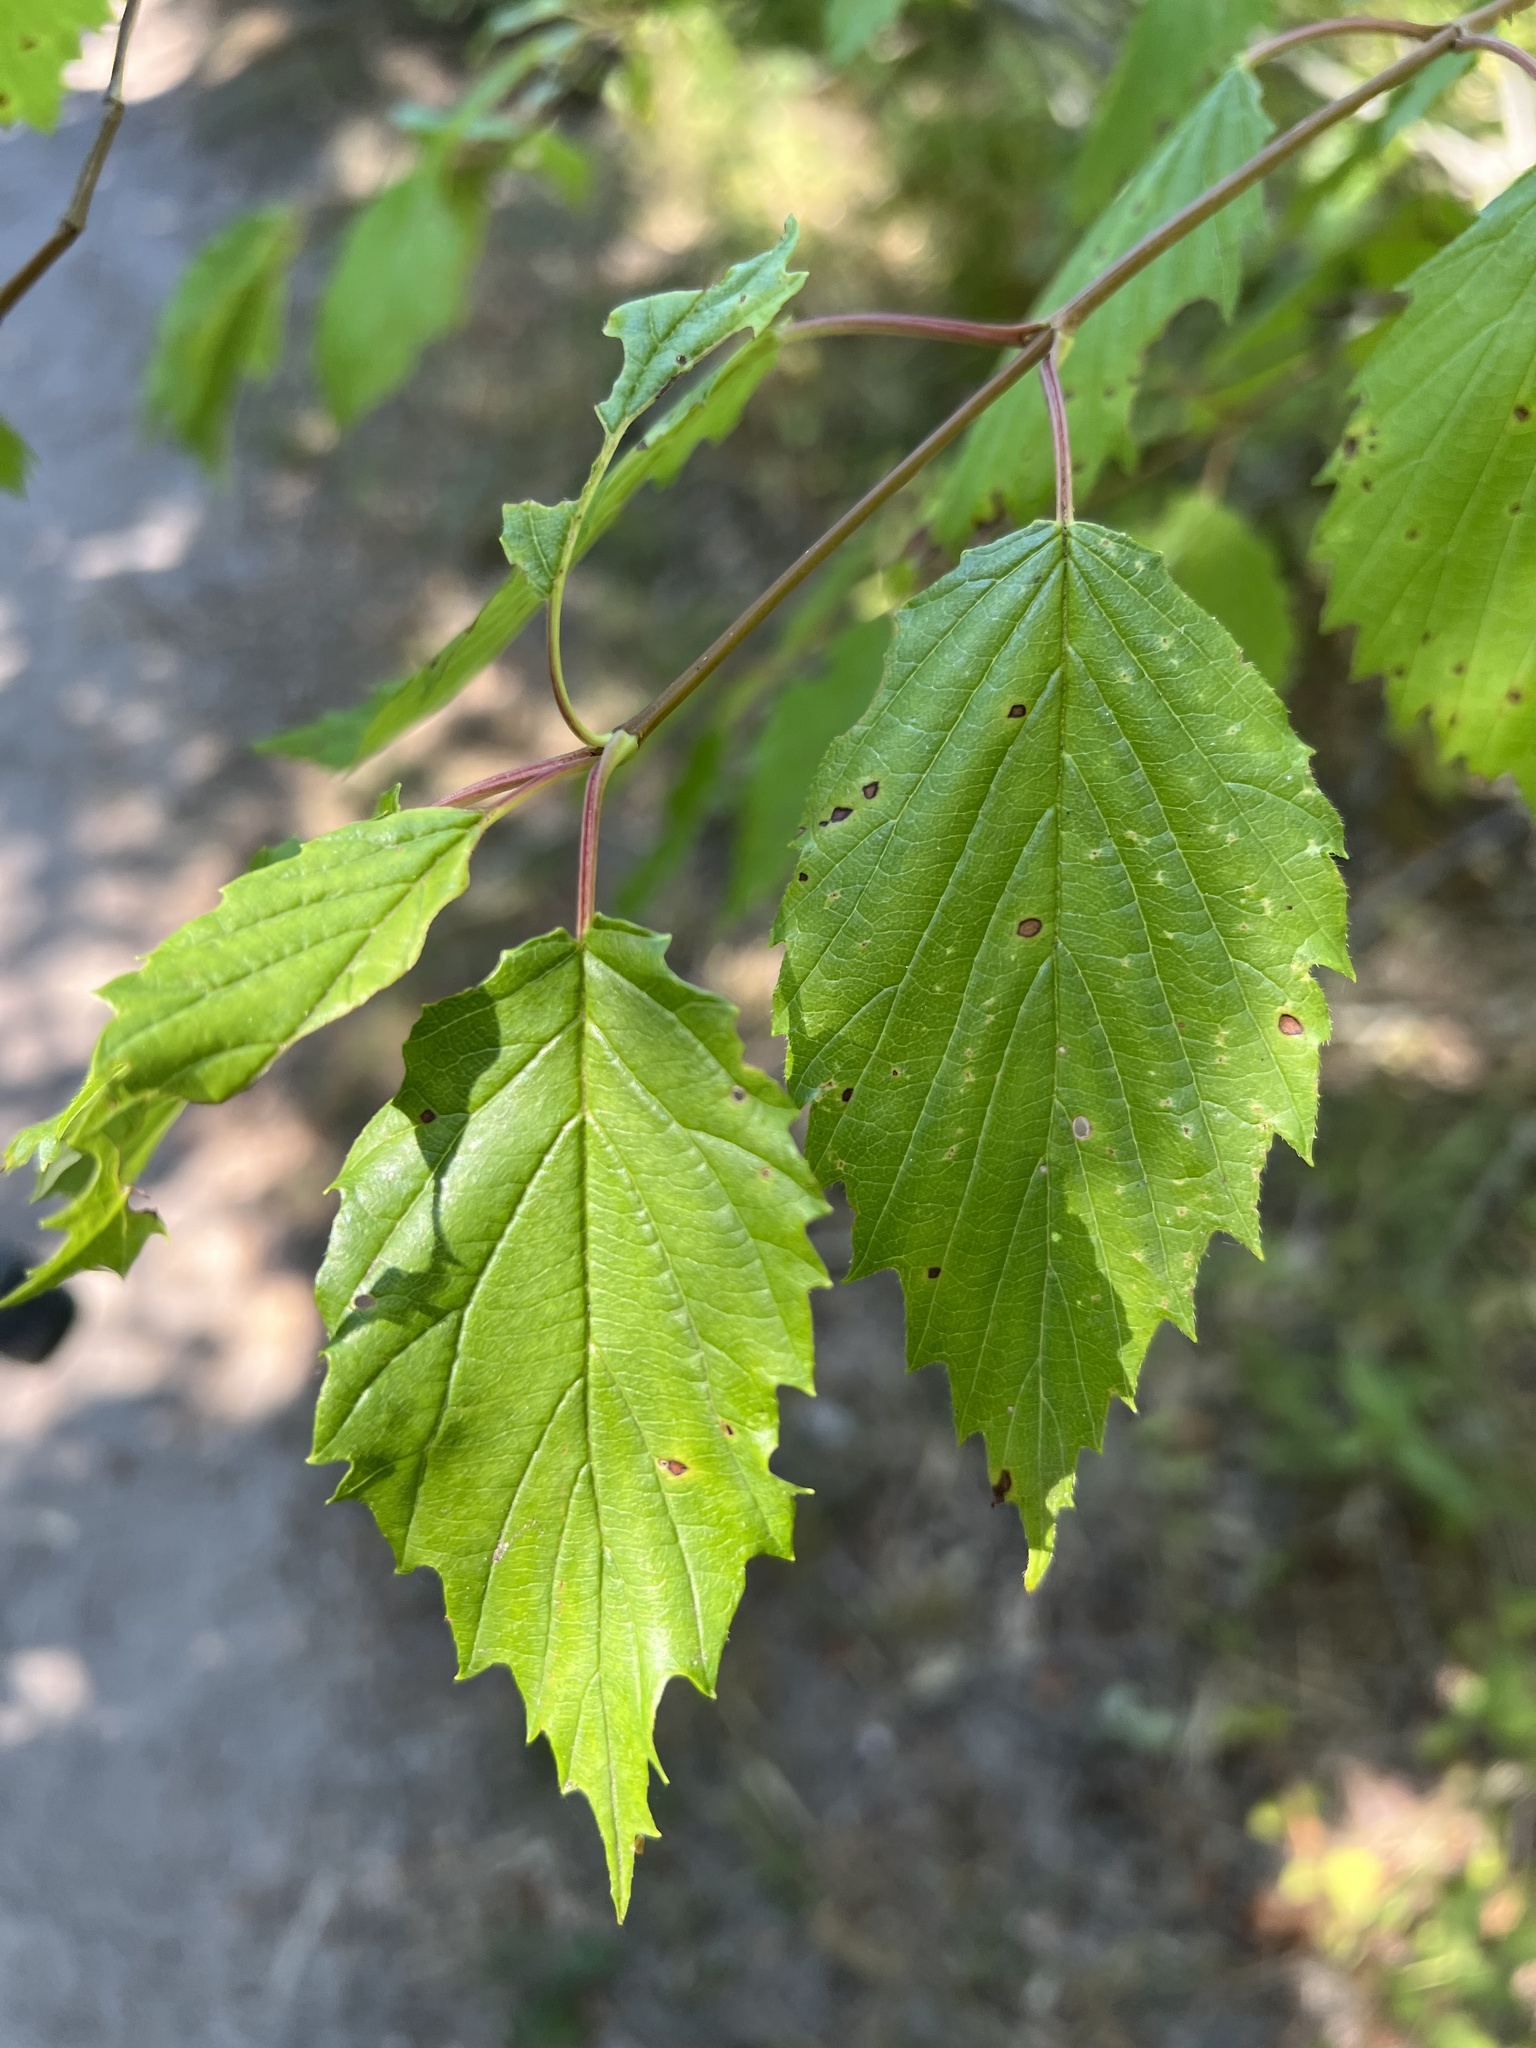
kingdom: Plantae
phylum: Tracheophyta
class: Magnoliopsida
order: Dipsacales
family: Viburnaceae
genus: Viburnum
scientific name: Viburnum recognitum
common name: Northern arrow-wood
